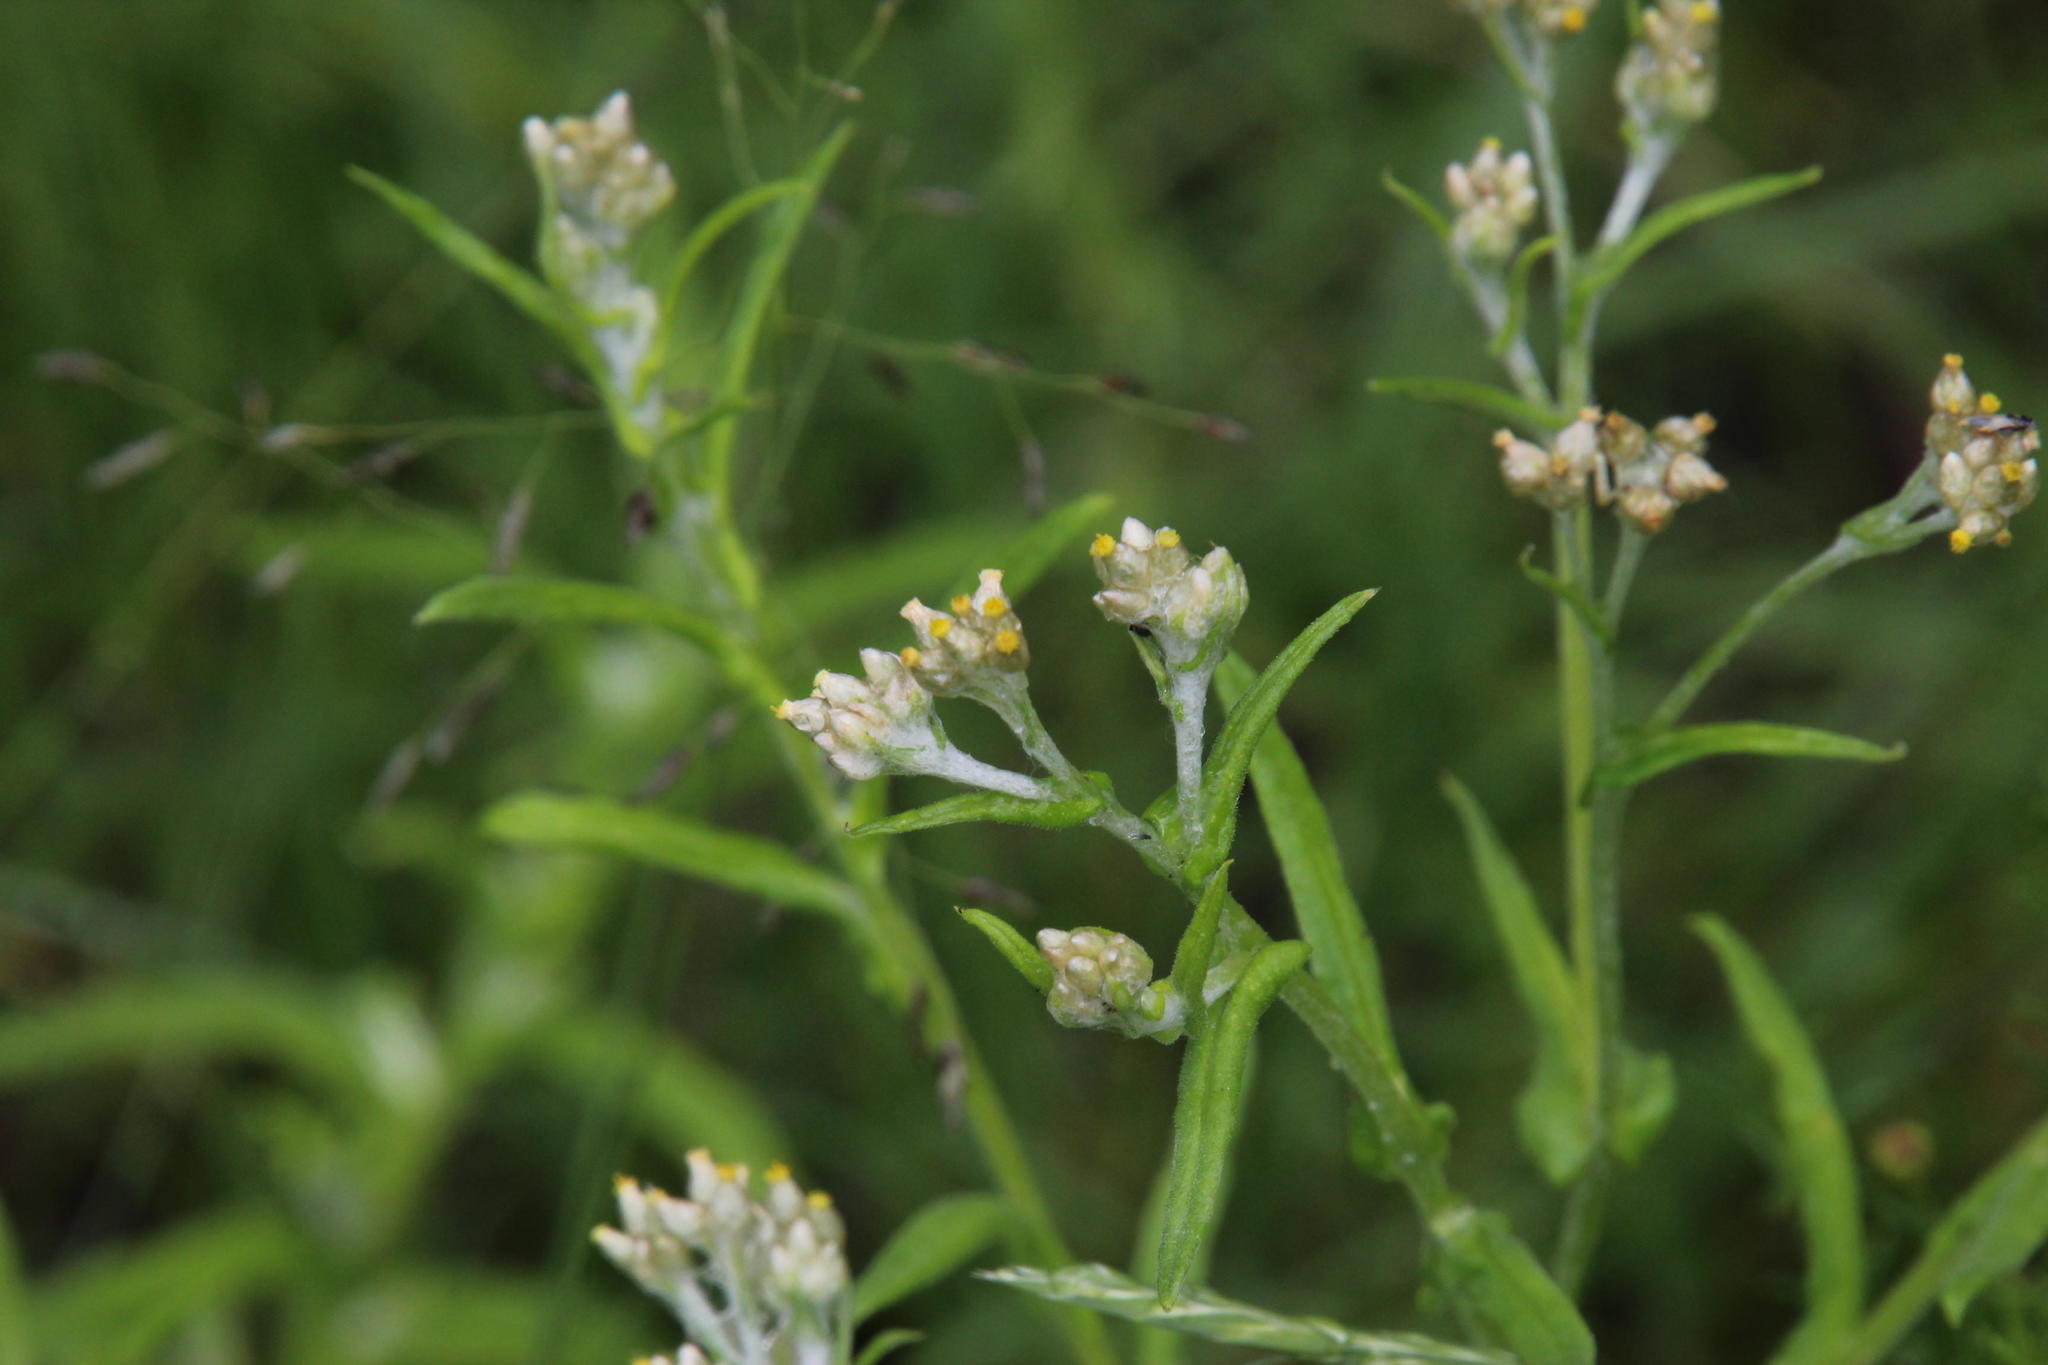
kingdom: Plantae
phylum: Tracheophyta
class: Magnoliopsida
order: Asterales
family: Asteraceae
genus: Helichrysum
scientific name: Helichrysum luteoalbum
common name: Daisy
